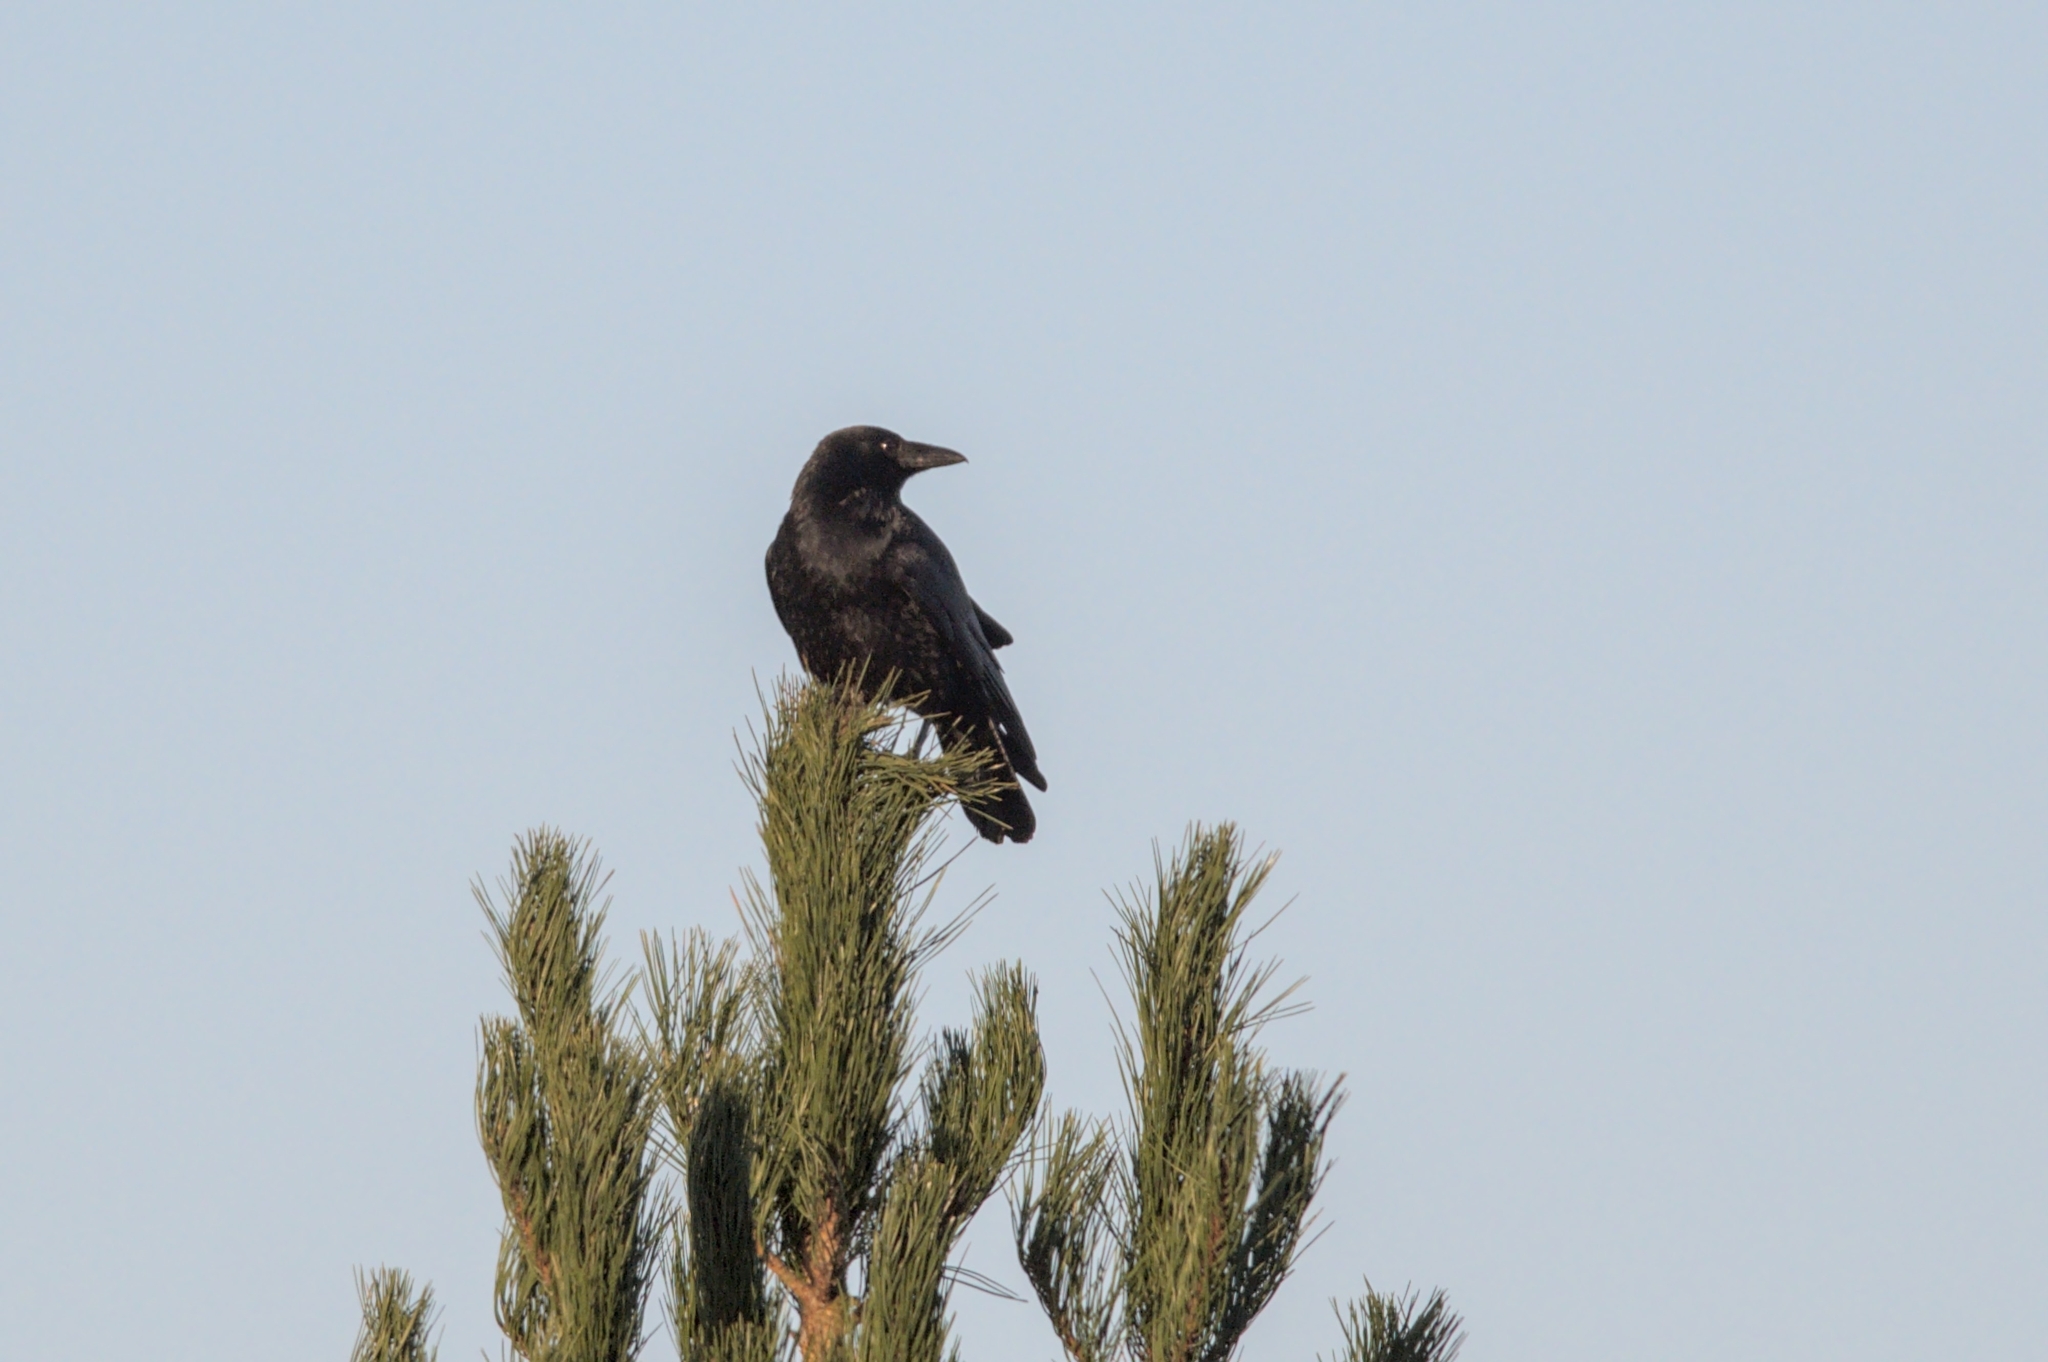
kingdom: Animalia
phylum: Chordata
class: Aves
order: Passeriformes
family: Corvidae
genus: Corvus
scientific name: Corvus corone
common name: Carrion crow
